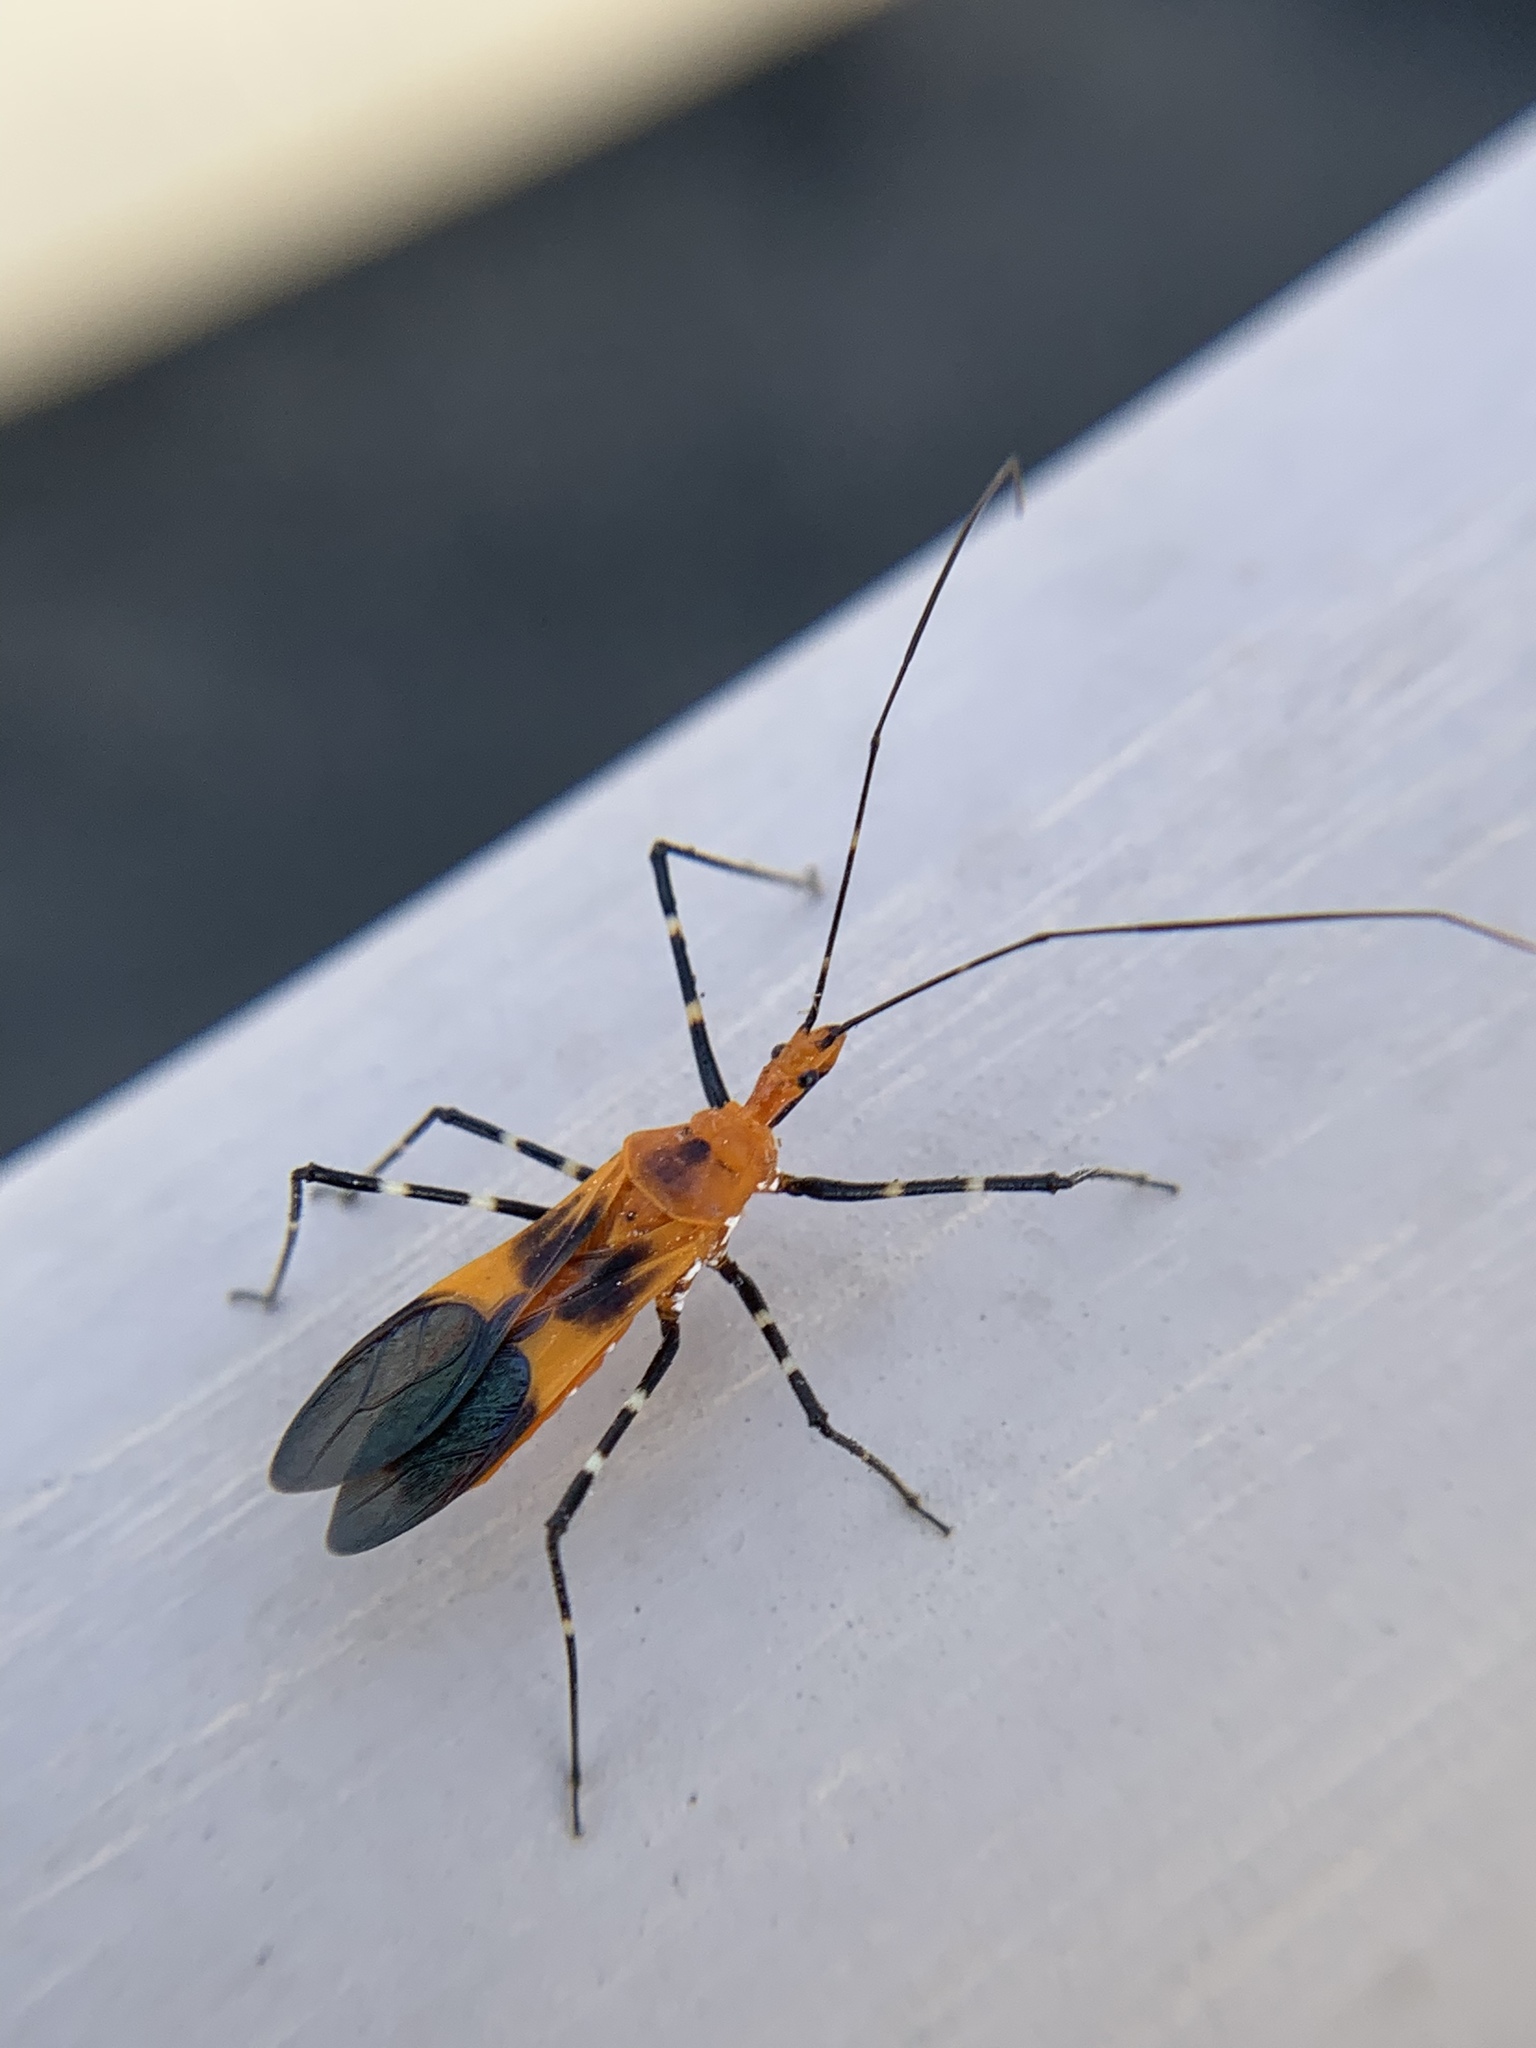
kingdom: Animalia
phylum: Arthropoda
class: Insecta
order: Hemiptera
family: Reduviidae
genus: Zelus
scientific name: Zelus longipes
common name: Milkweed assassin bug
